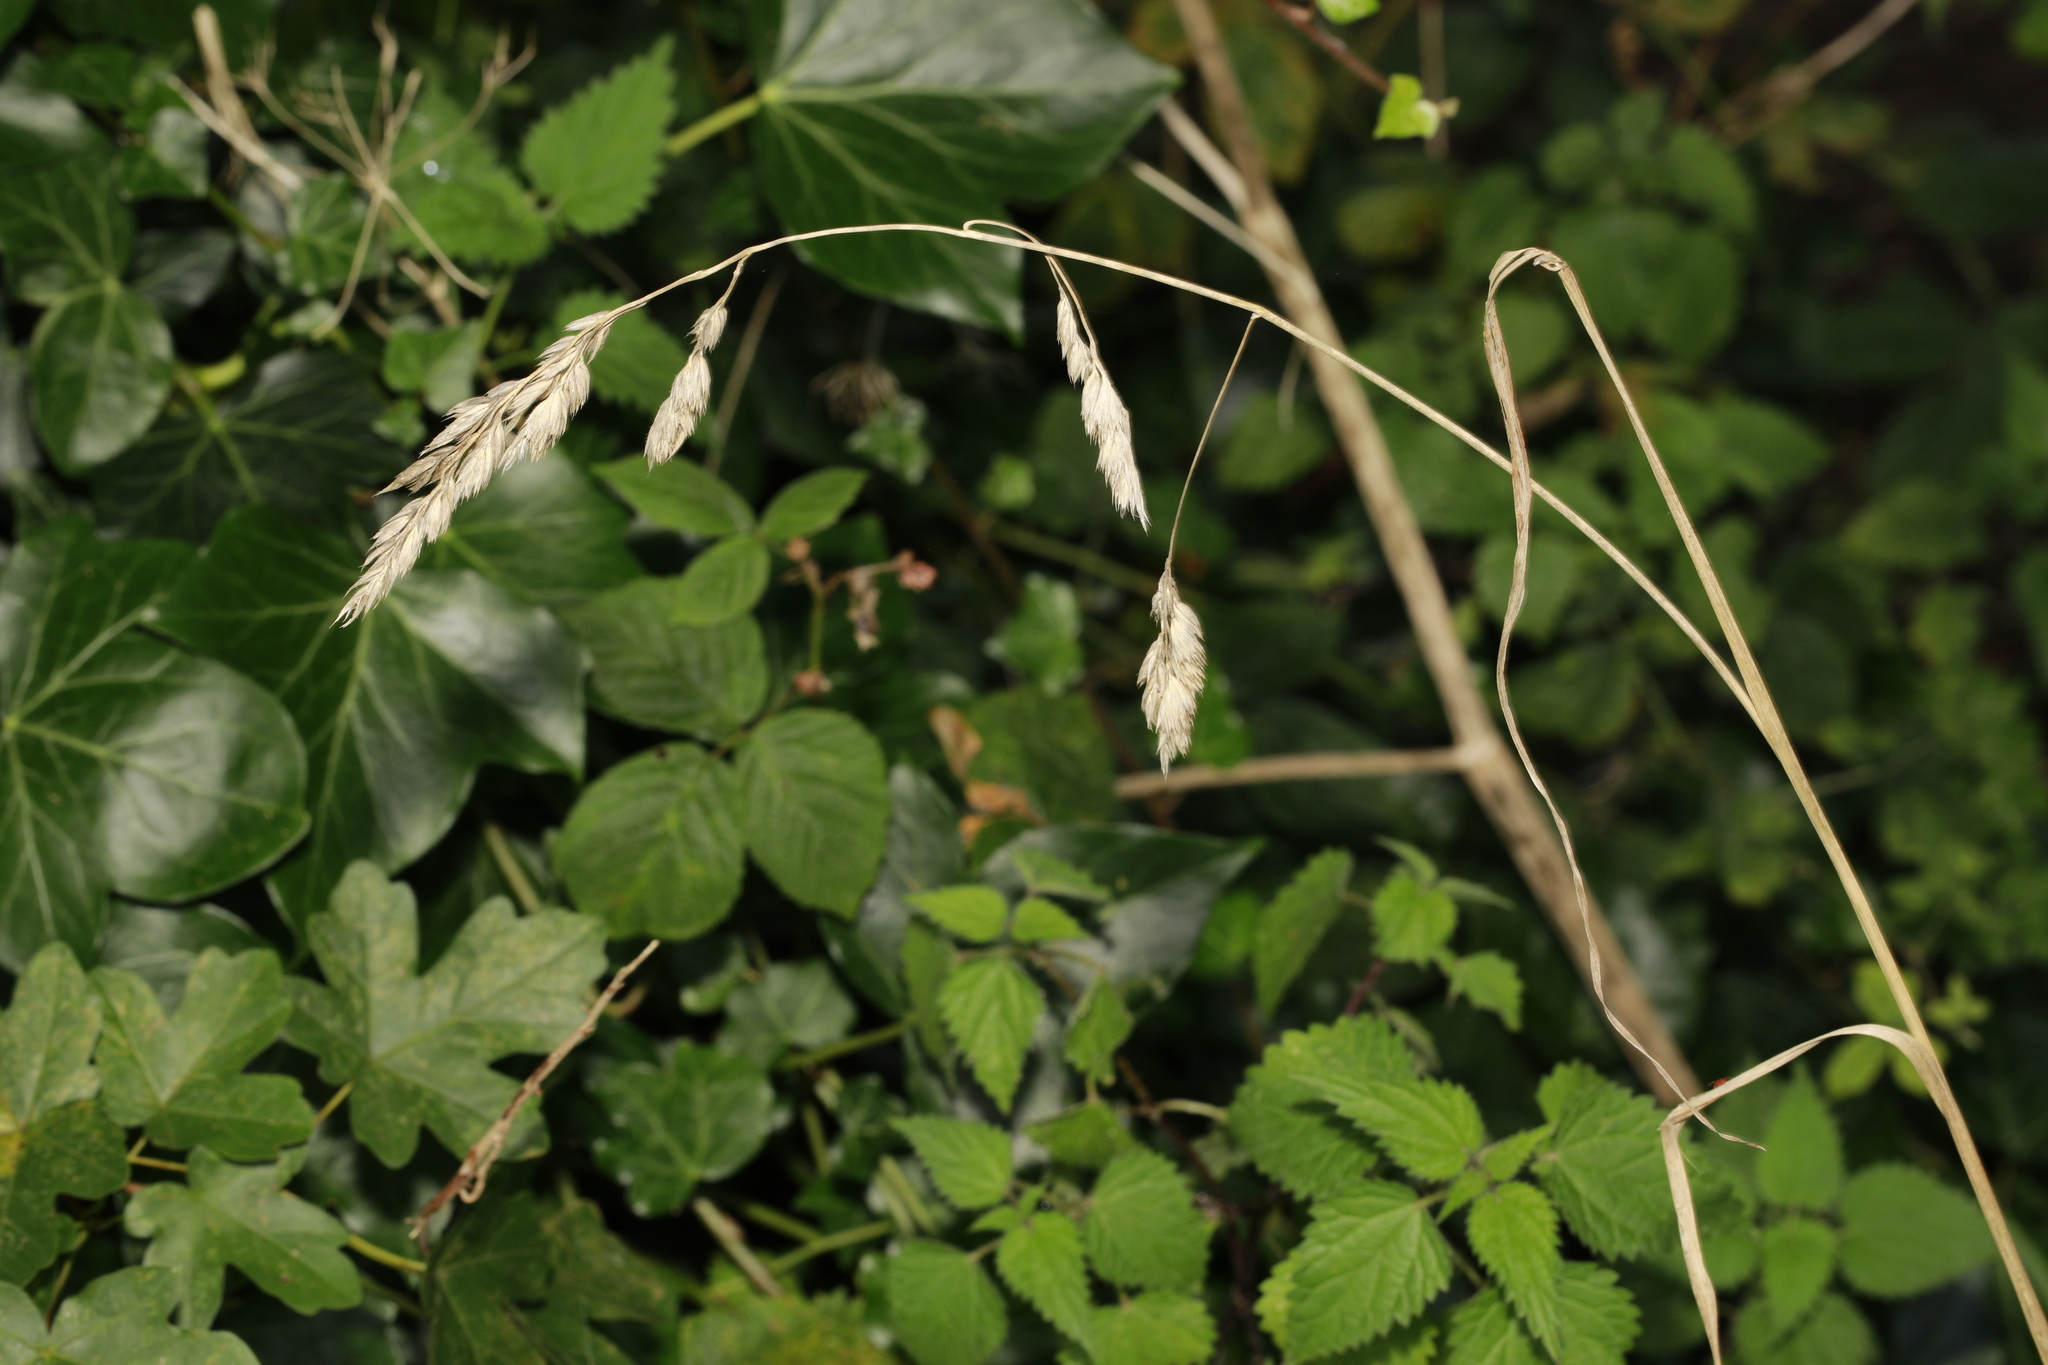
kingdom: Plantae
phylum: Tracheophyta
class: Liliopsida
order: Poales
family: Poaceae
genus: Dactylis
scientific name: Dactylis glomerata
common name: Orchardgrass
